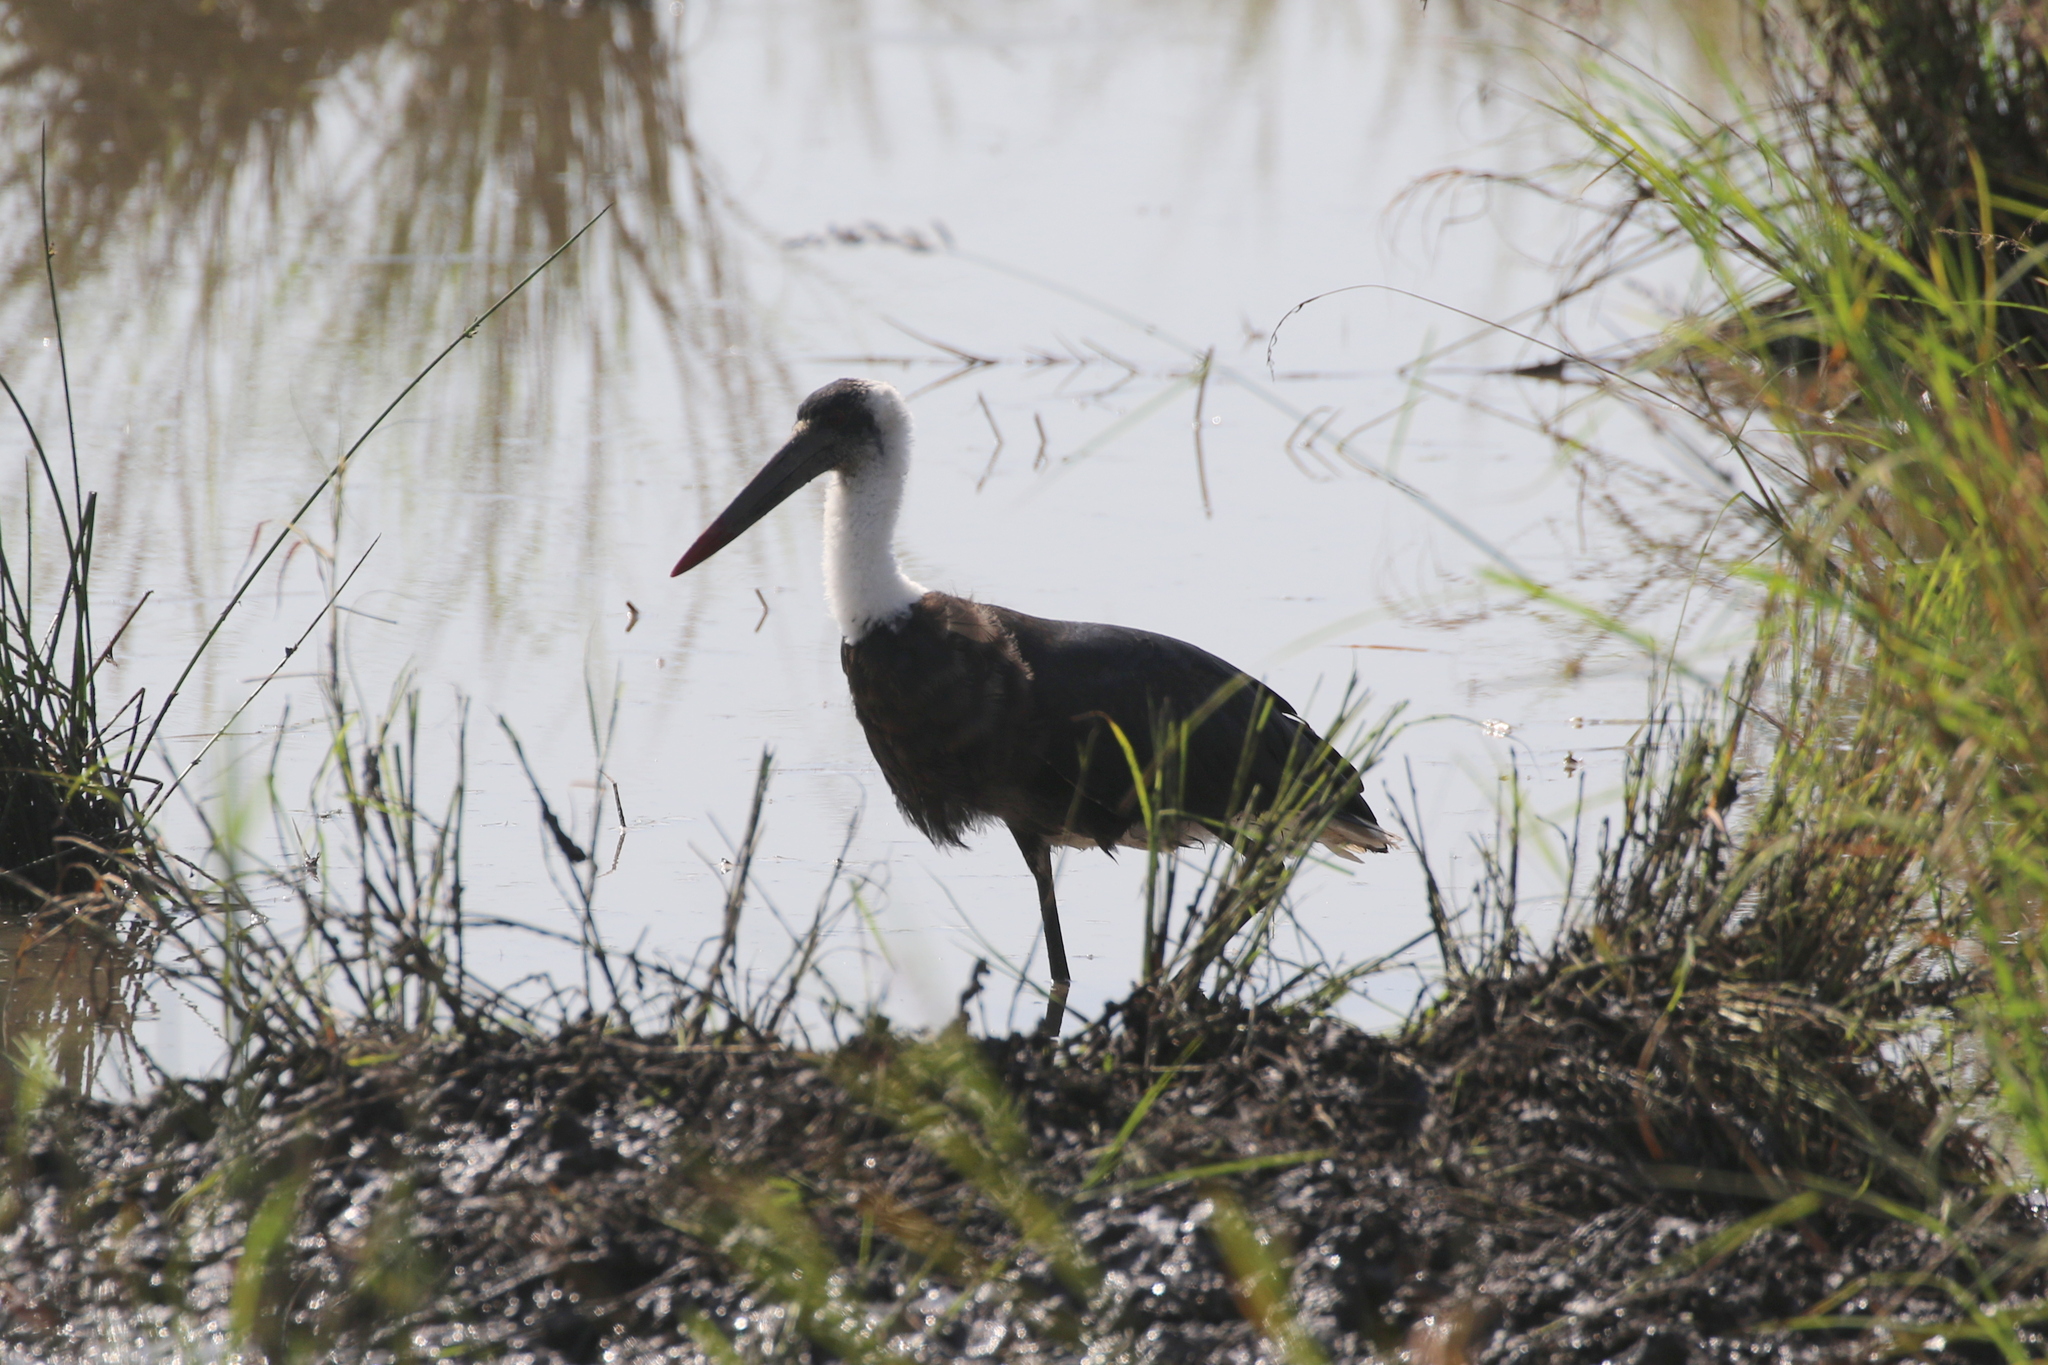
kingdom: Animalia
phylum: Chordata
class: Aves
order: Ciconiiformes
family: Ciconiidae
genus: Ciconia
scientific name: Ciconia microscelis
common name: African woollyneck
